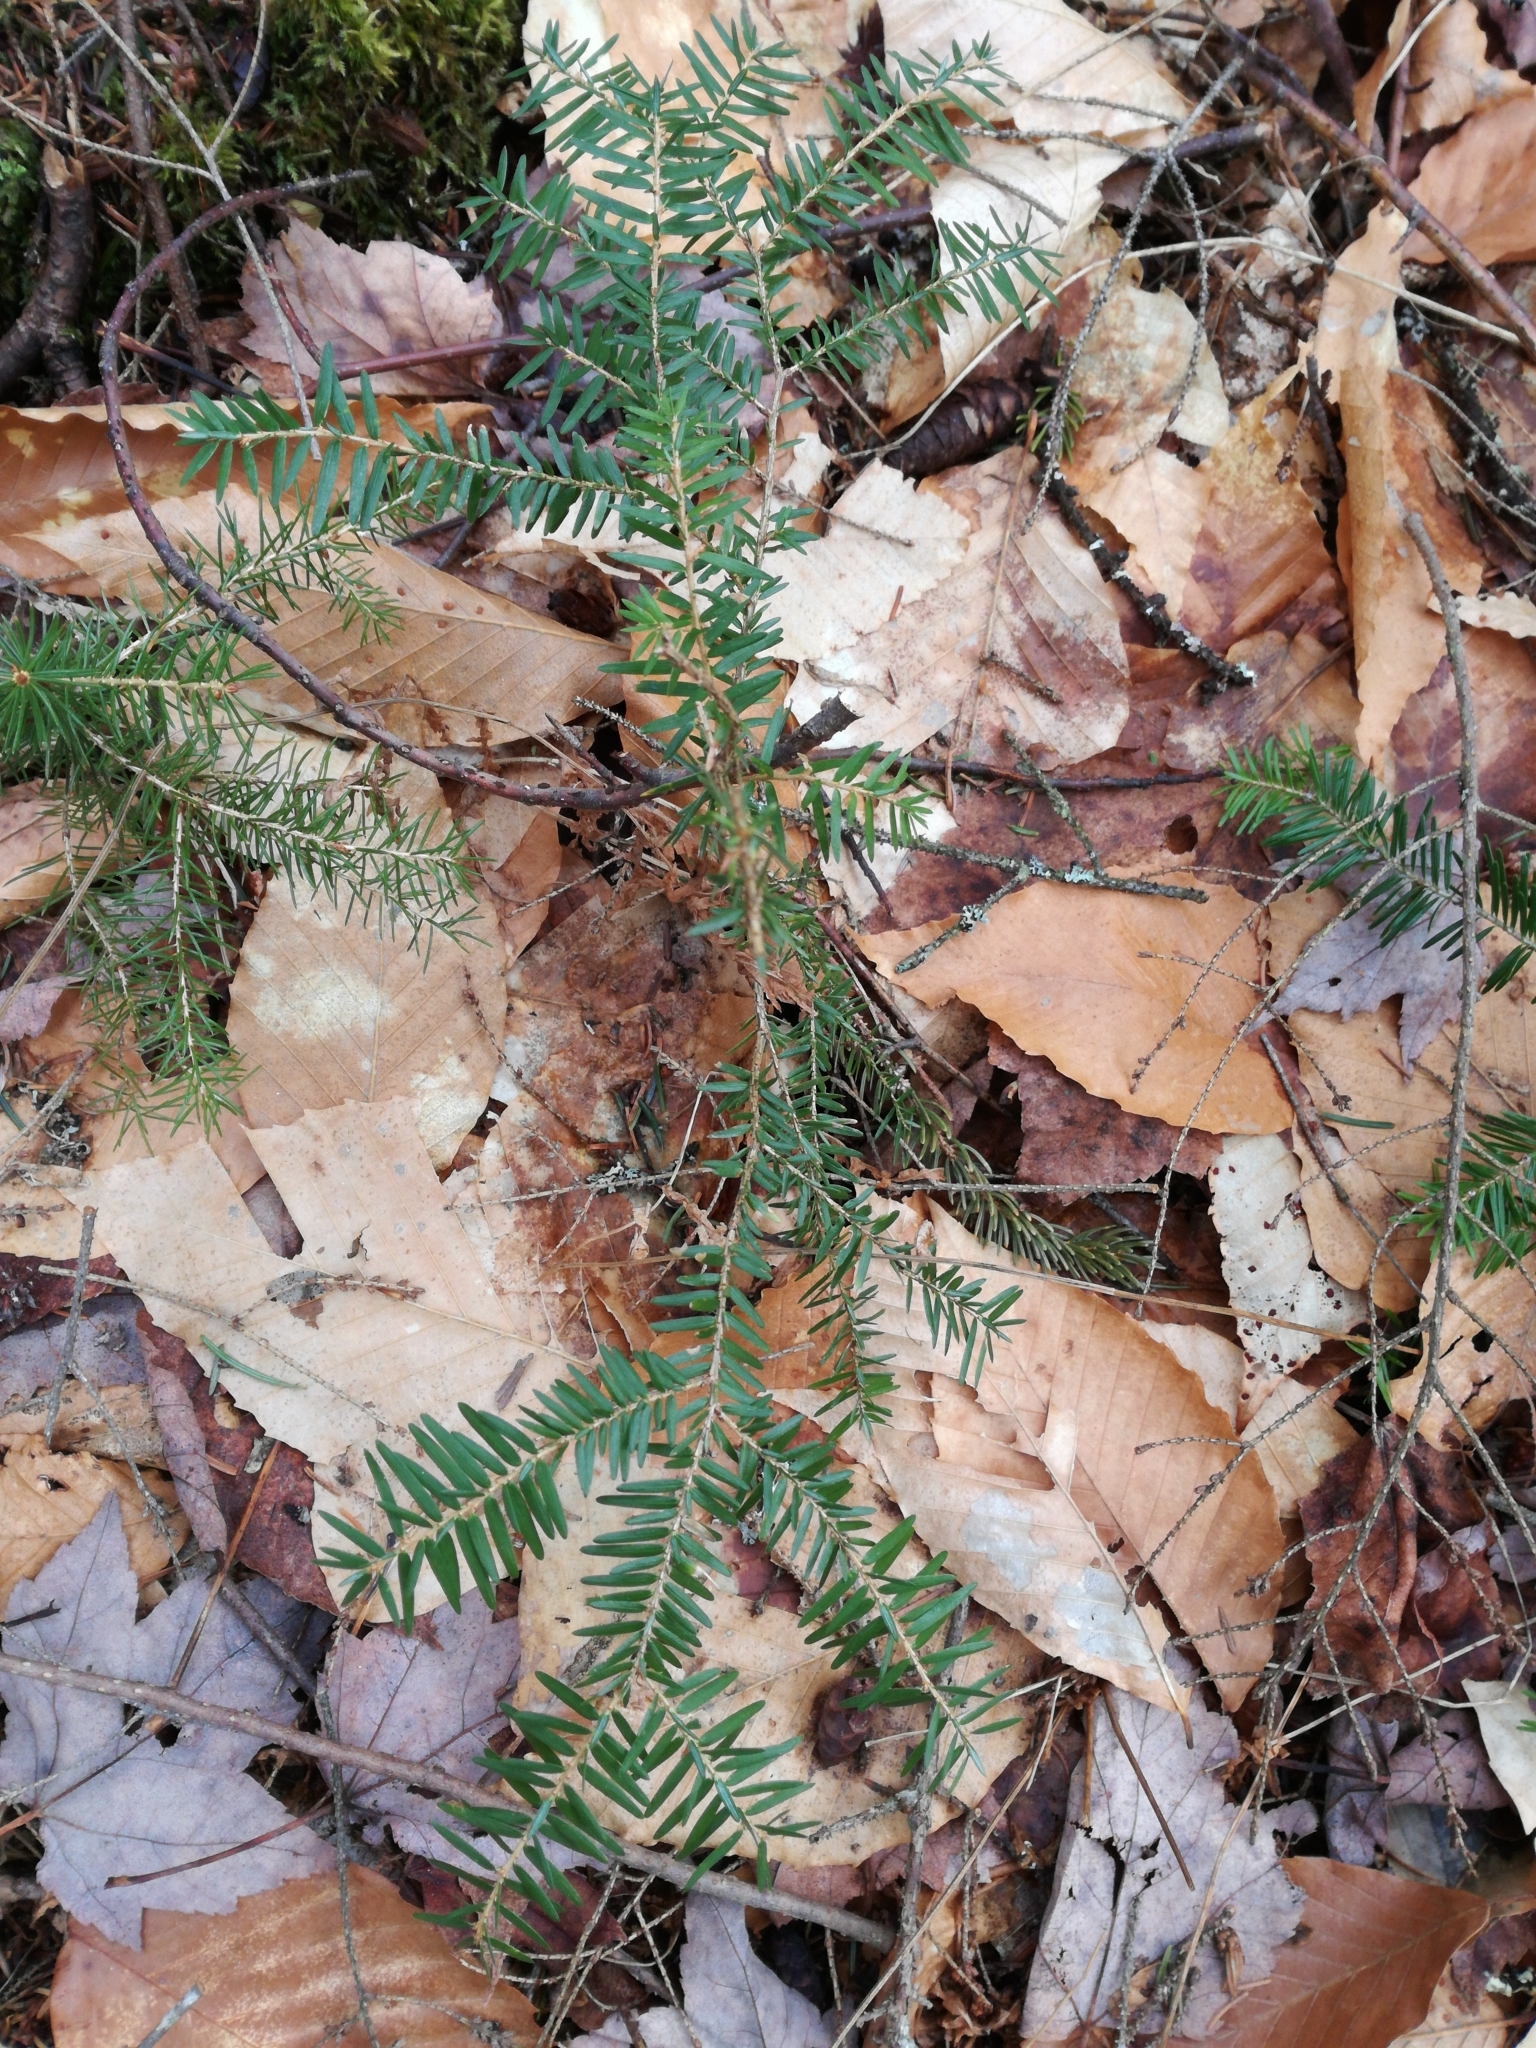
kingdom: Plantae
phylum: Tracheophyta
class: Pinopsida
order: Pinales
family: Pinaceae
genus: Tsuga
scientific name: Tsuga canadensis
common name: Eastern hemlock
